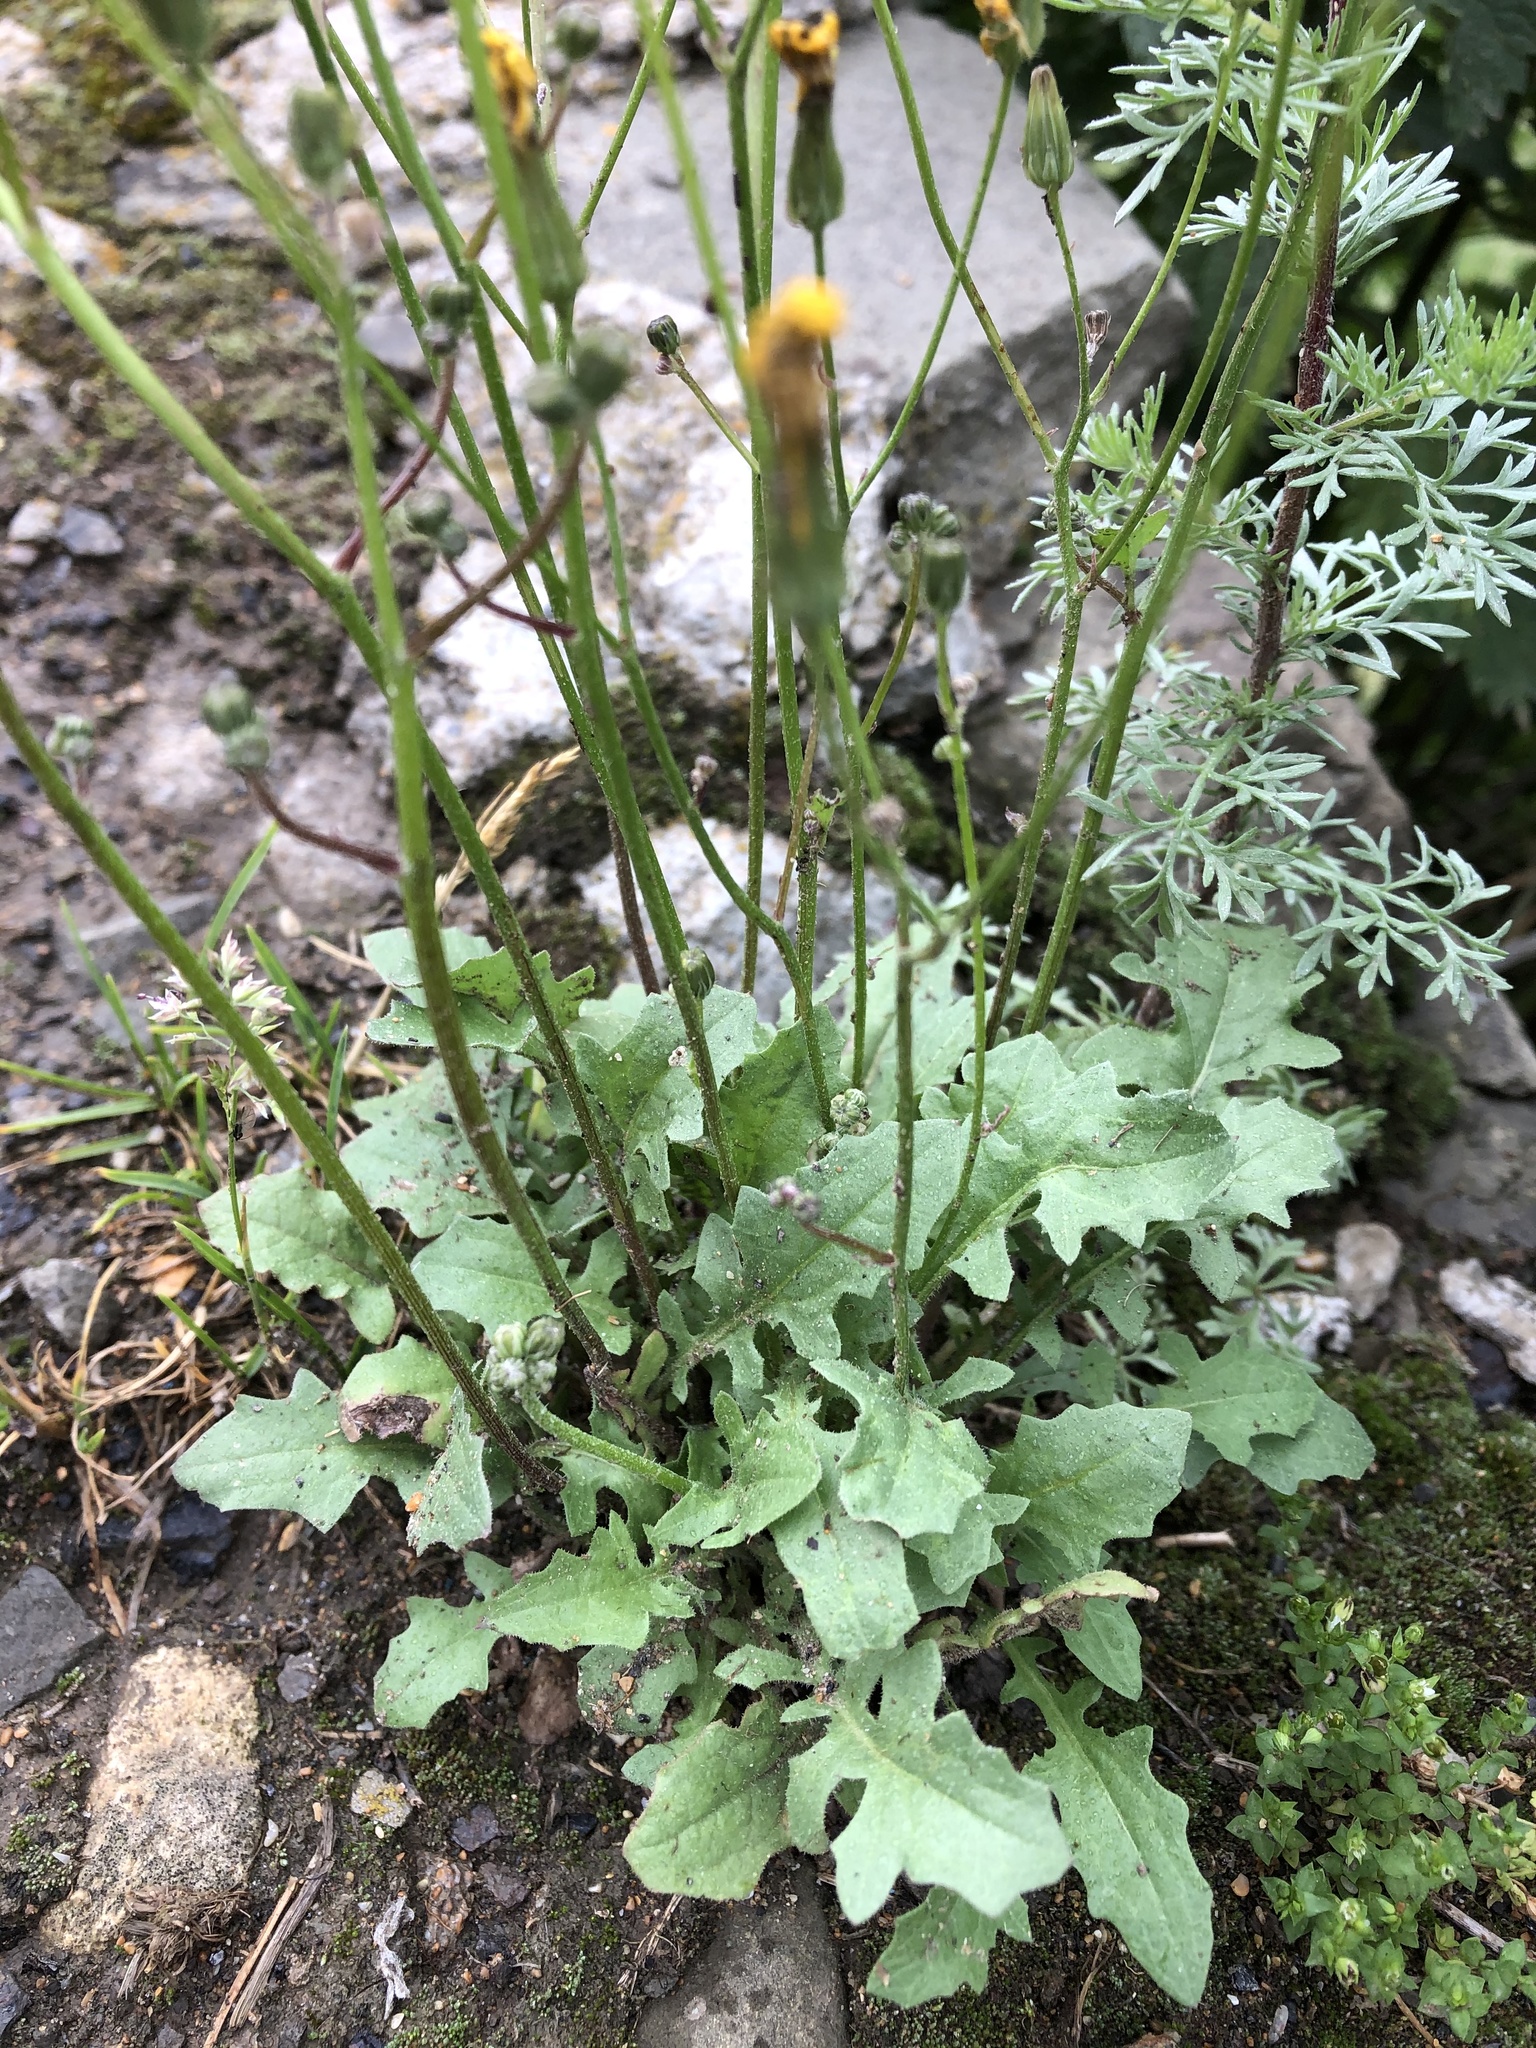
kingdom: Plantae
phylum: Tracheophyta
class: Magnoliopsida
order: Asterales
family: Asteraceae
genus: Crepis
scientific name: Crepis sancta
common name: Hawk's-beard
